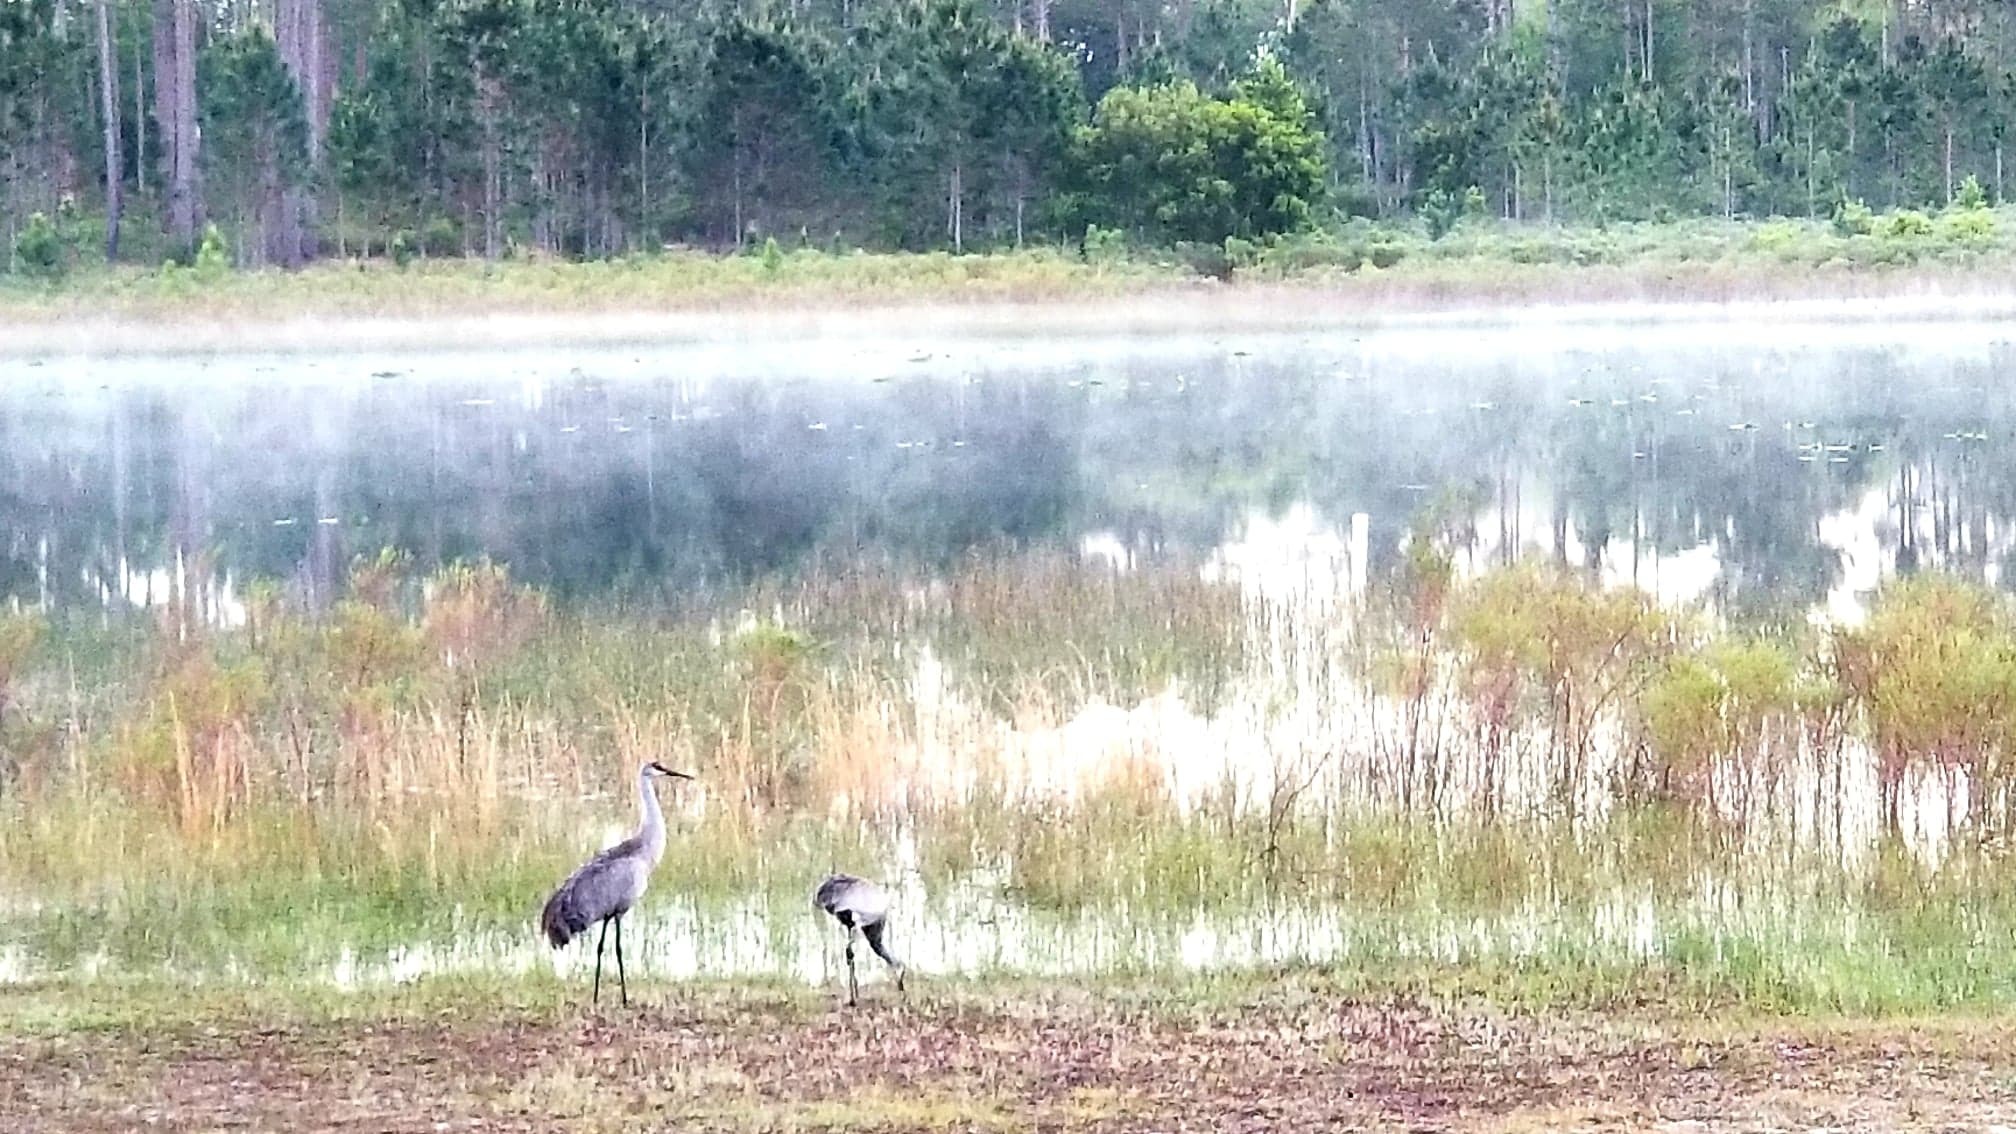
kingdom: Animalia
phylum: Chordata
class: Aves
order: Gruiformes
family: Gruidae
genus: Grus
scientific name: Grus canadensis
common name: Sandhill crane
